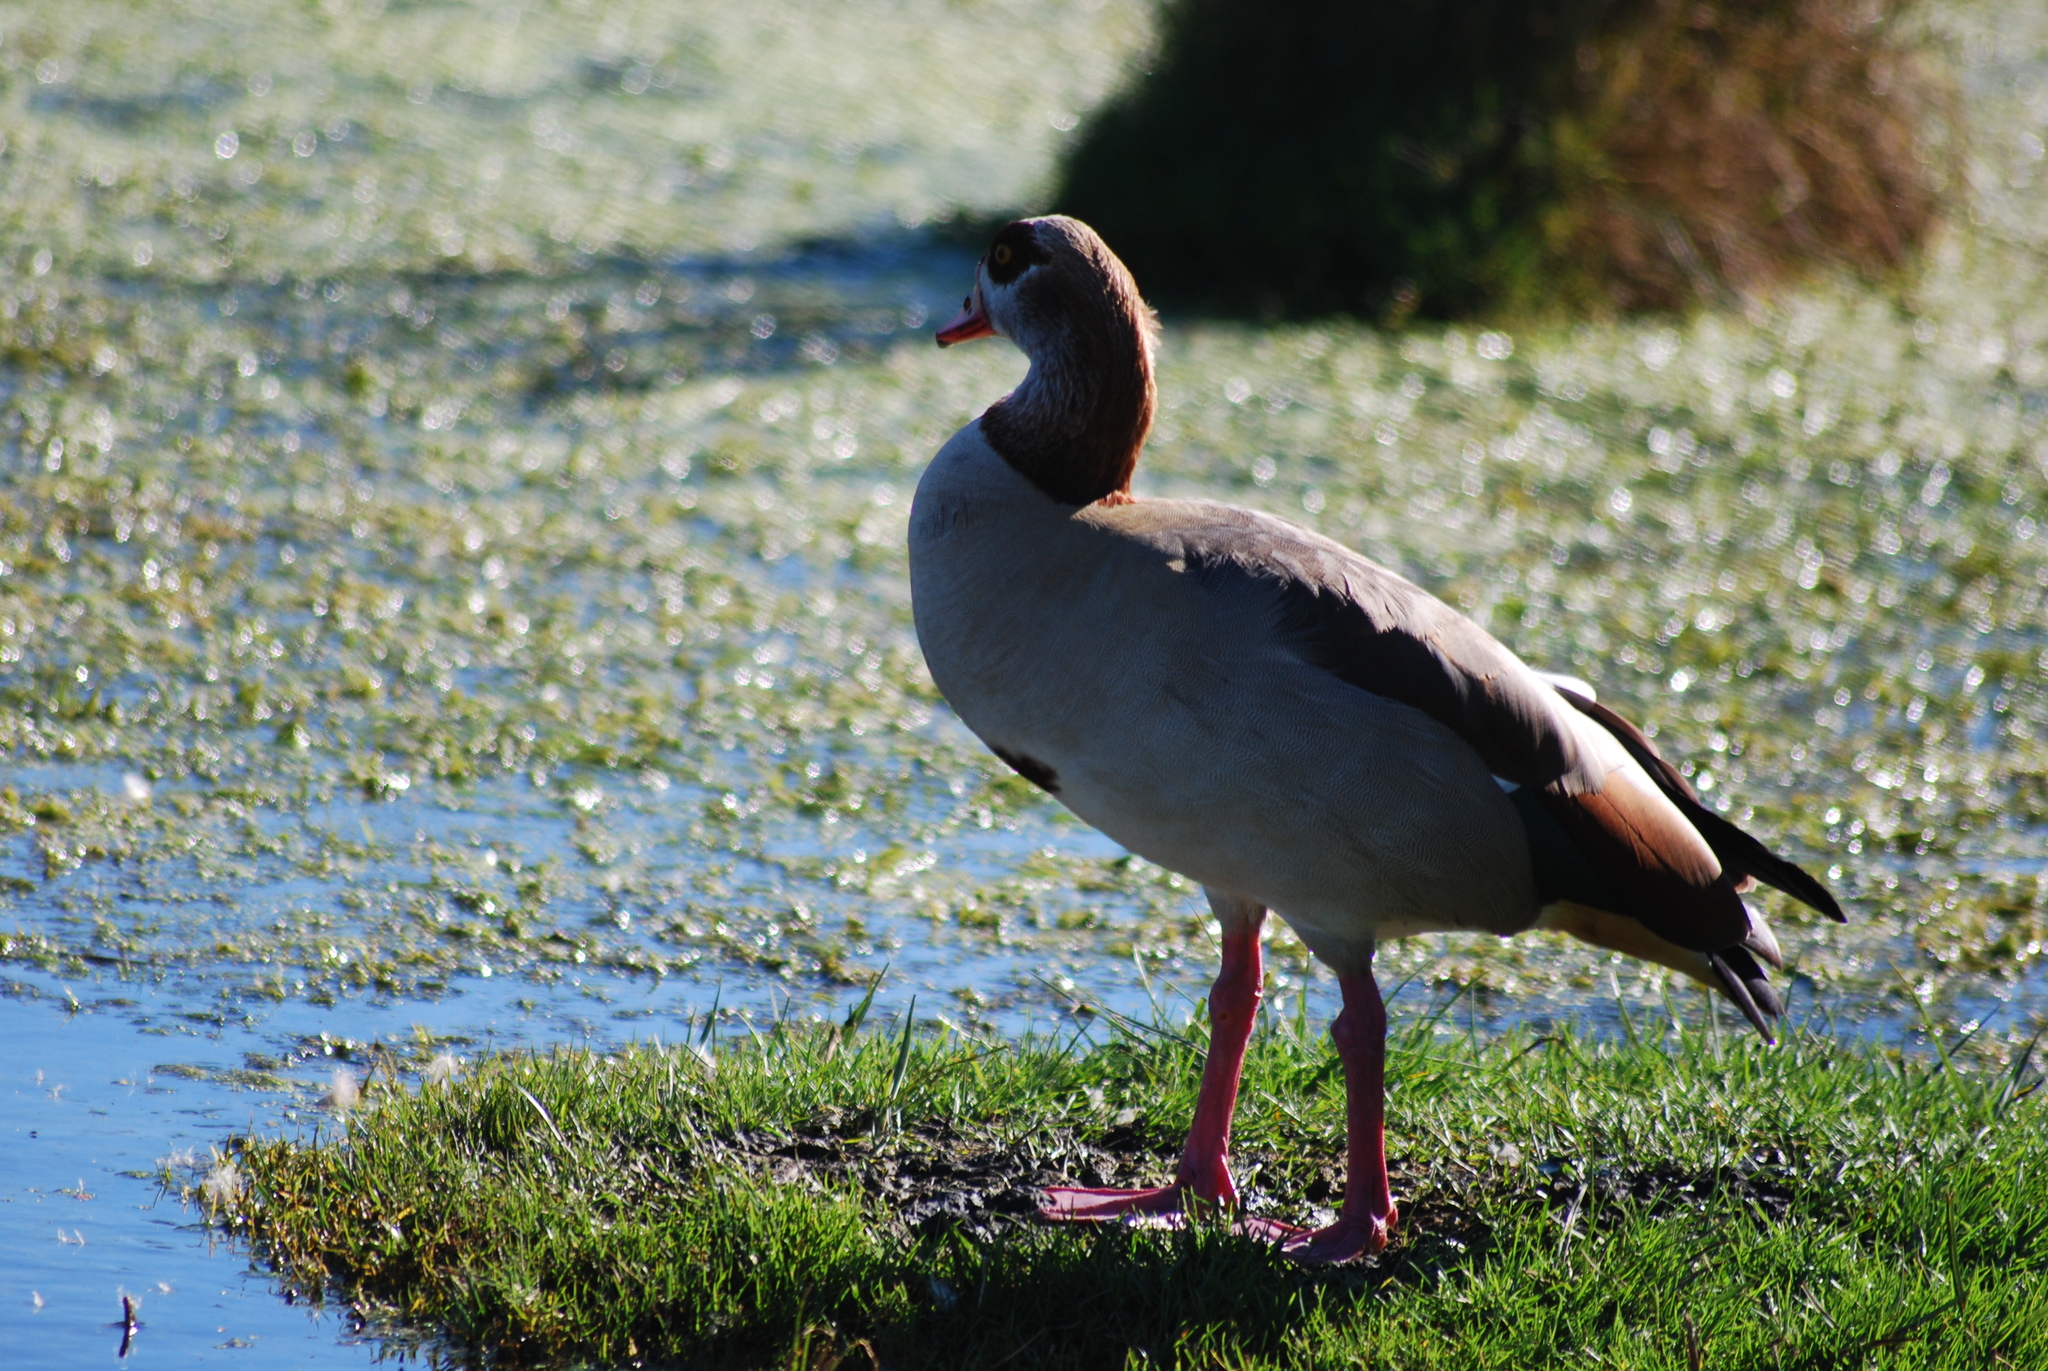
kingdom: Animalia
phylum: Chordata
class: Aves
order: Anseriformes
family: Anatidae
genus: Alopochen
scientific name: Alopochen aegyptiaca
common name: Egyptian goose
